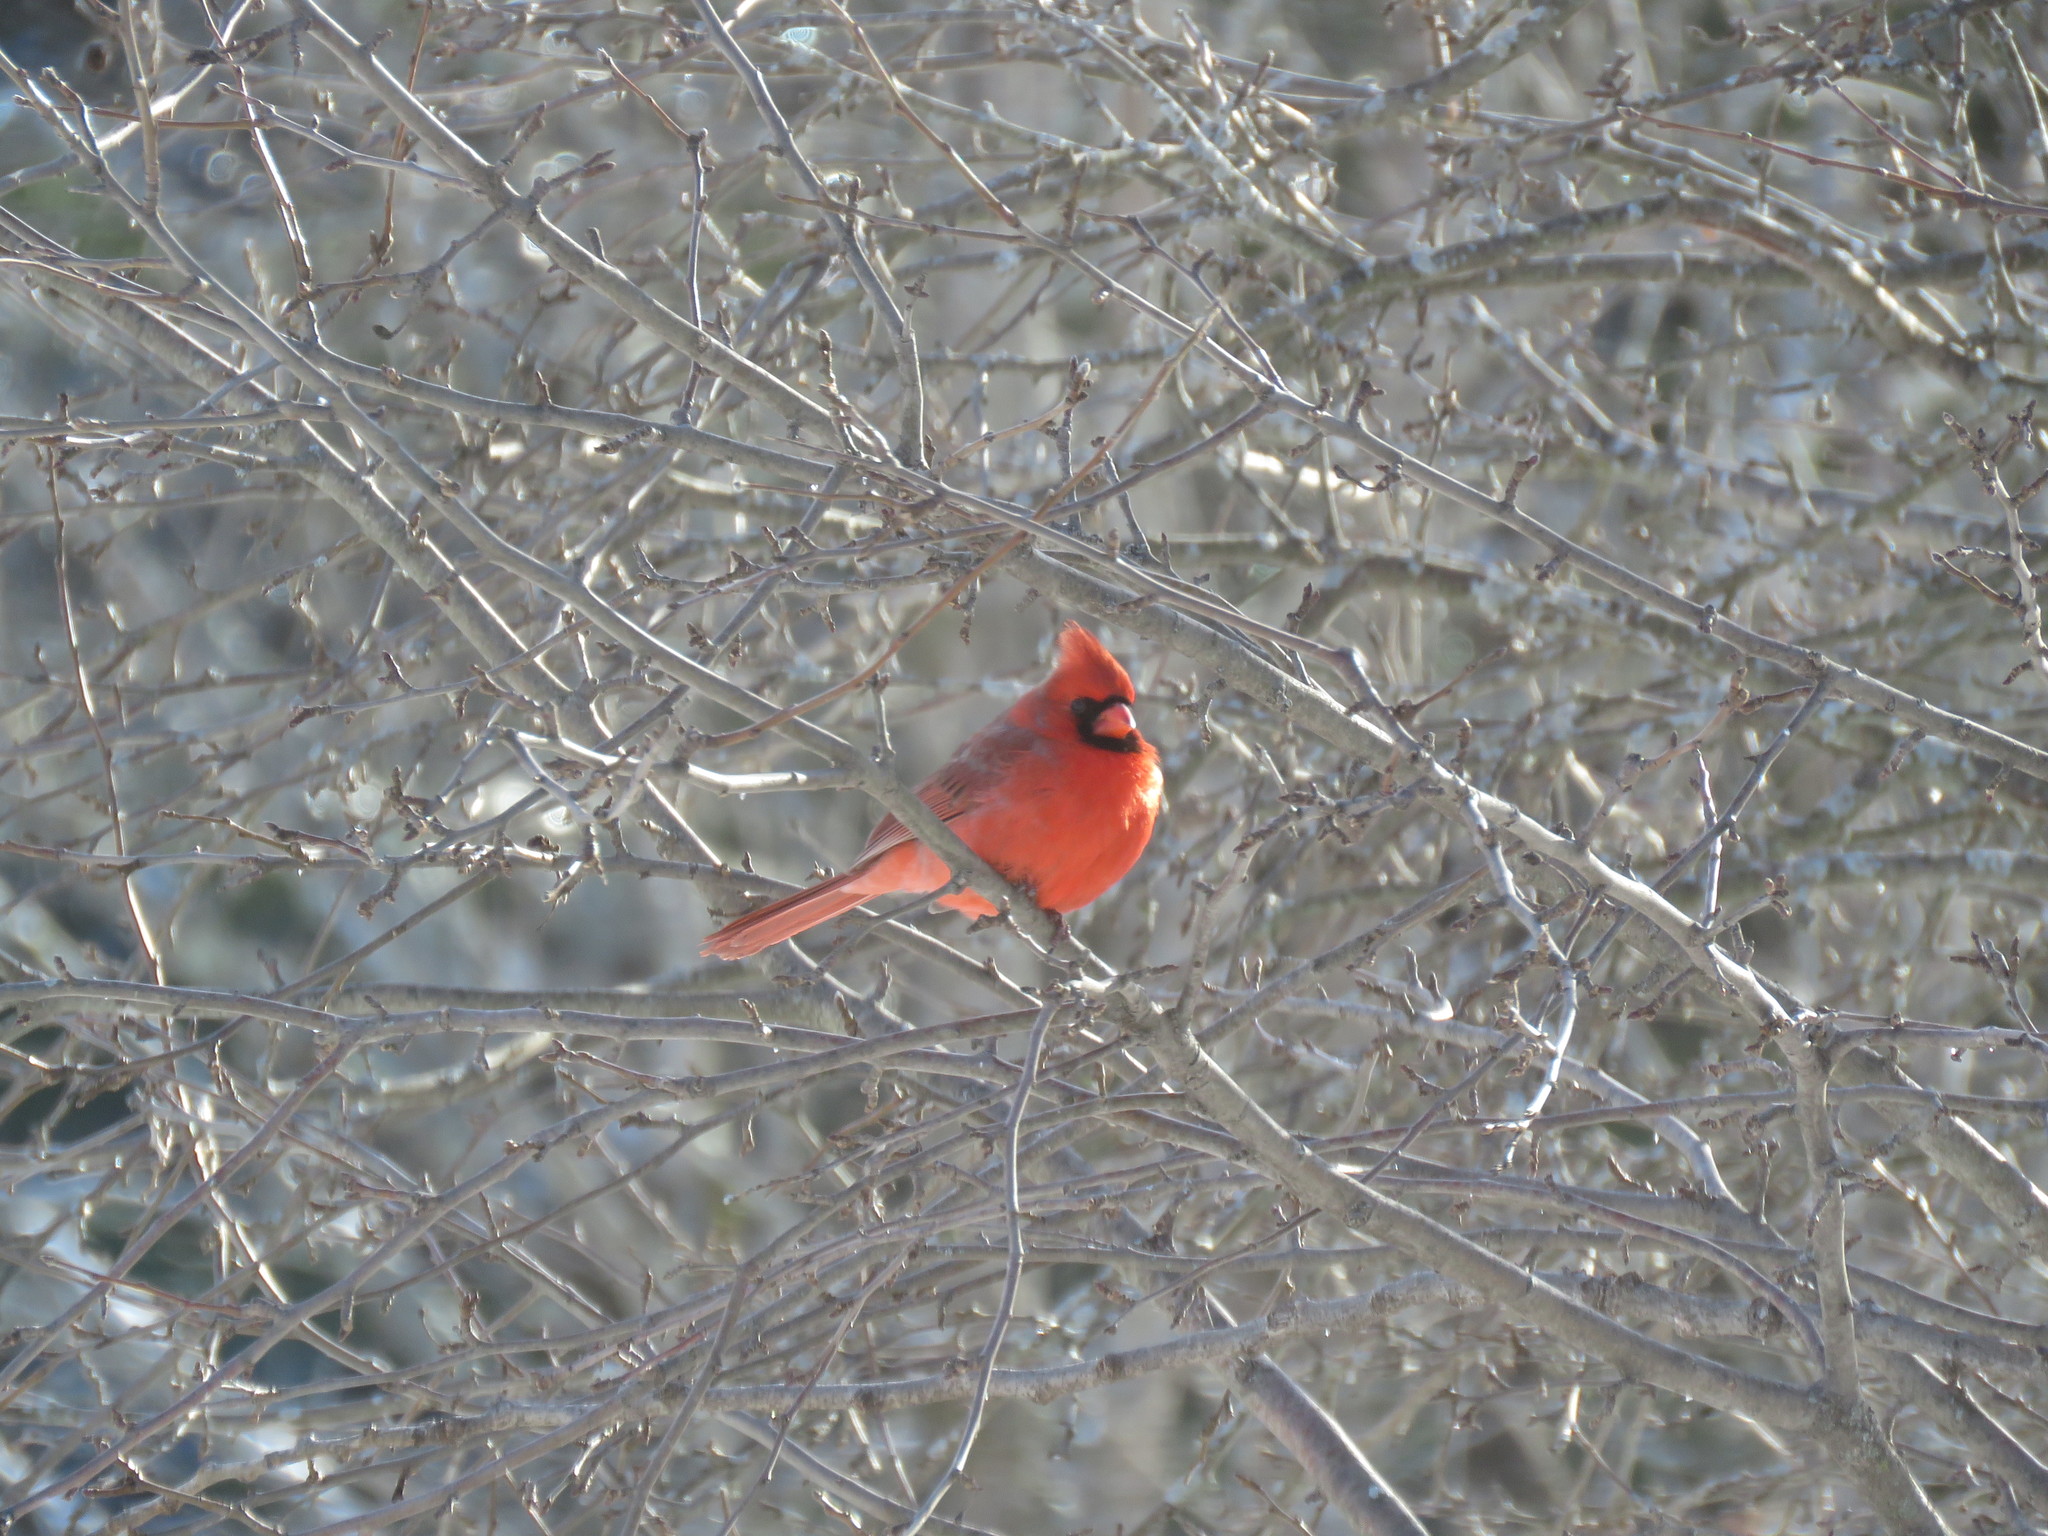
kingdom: Animalia
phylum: Chordata
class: Aves
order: Passeriformes
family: Cardinalidae
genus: Cardinalis
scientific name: Cardinalis cardinalis
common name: Northern cardinal
